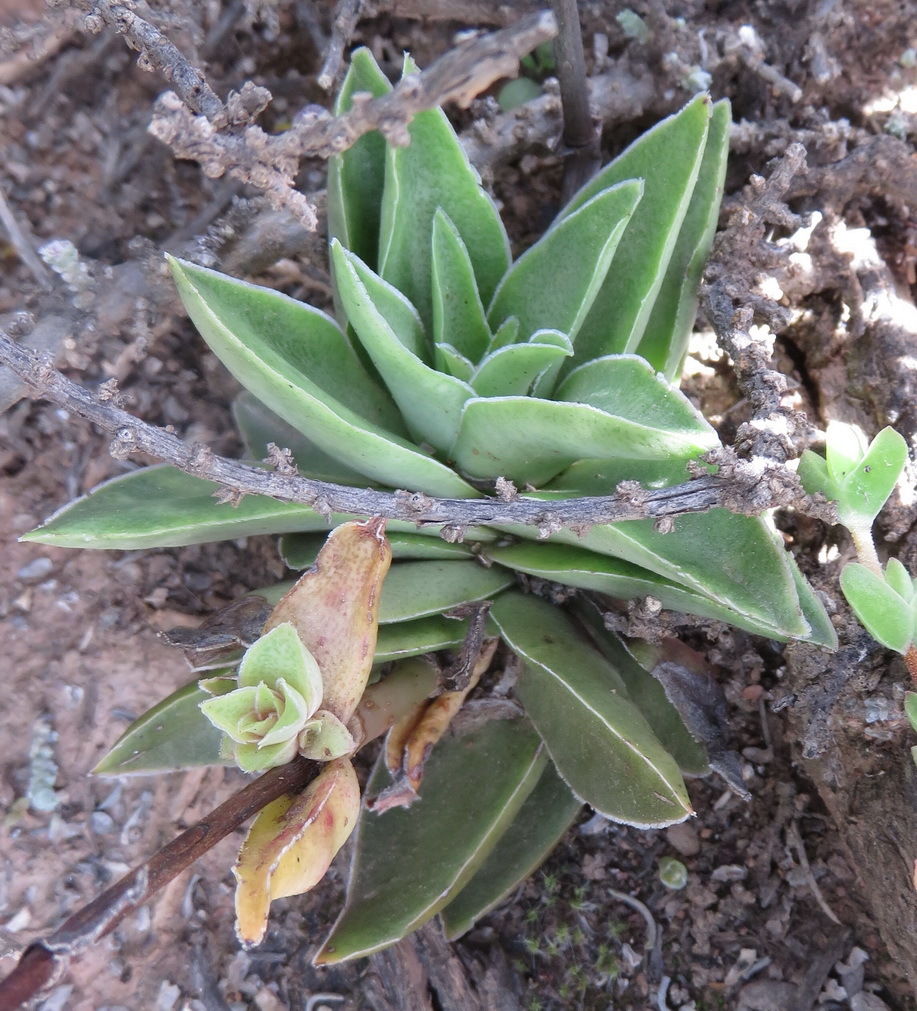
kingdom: Plantae
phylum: Tracheophyta
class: Magnoliopsida
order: Saxifragales
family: Crassulaceae
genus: Crassula
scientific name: Crassula capitella
